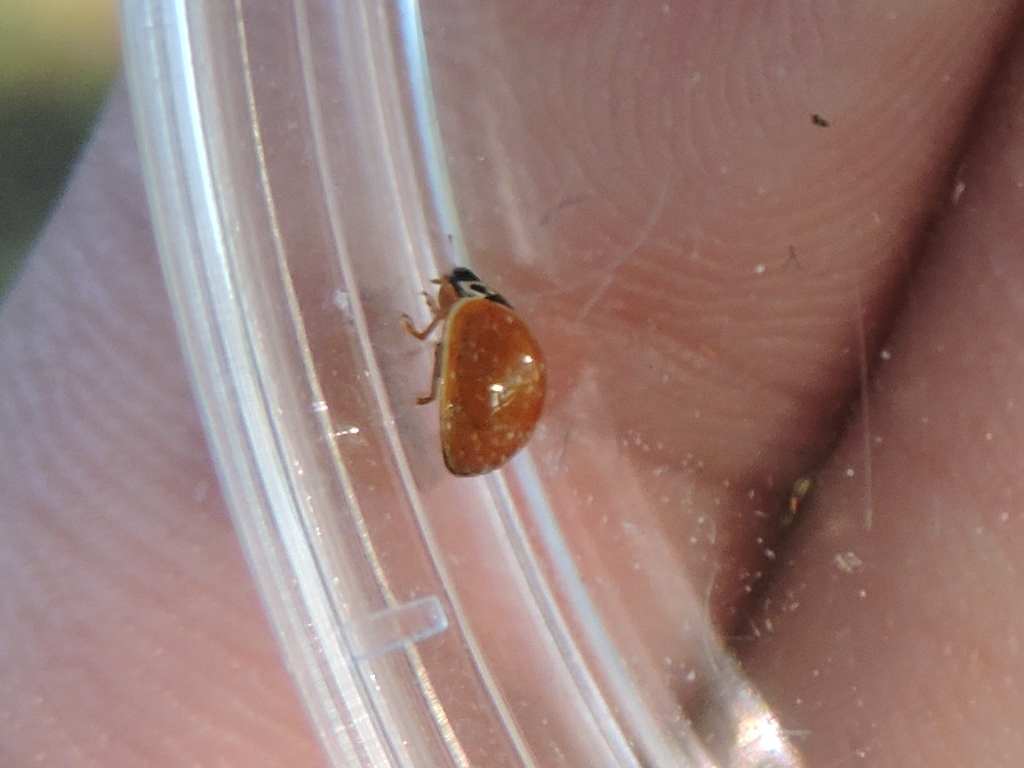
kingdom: Animalia
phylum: Arthropoda
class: Insecta
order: Coleoptera
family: Coccinellidae
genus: Cycloneda
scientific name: Cycloneda munda
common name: Polished lady beetle
